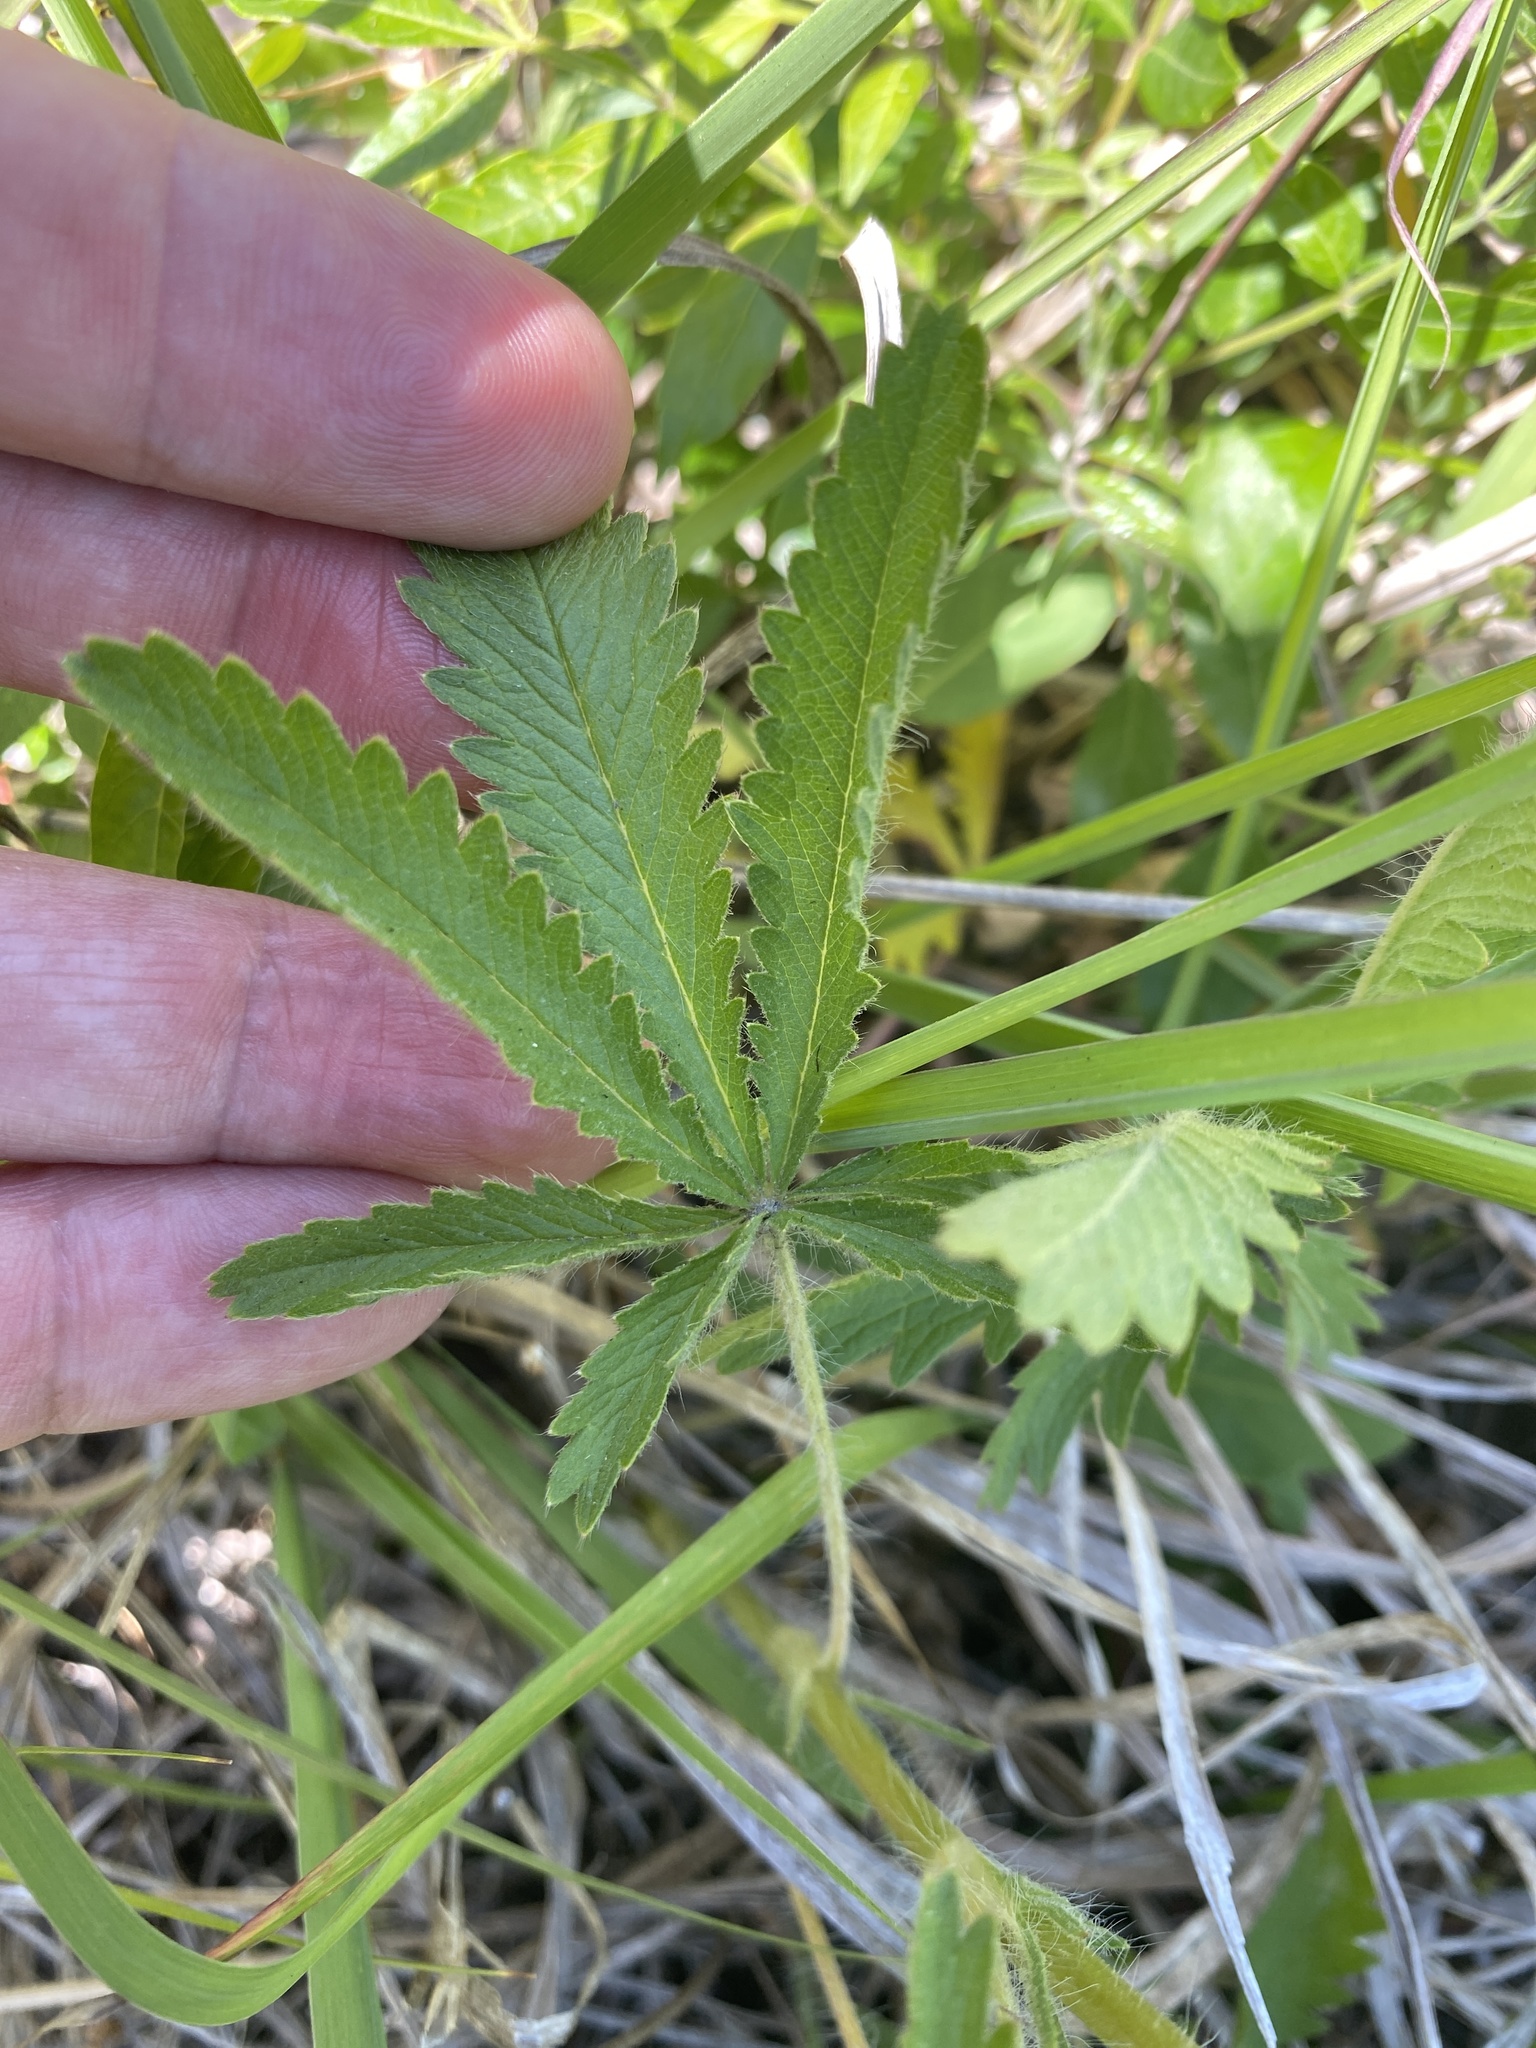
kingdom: Plantae
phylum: Tracheophyta
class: Magnoliopsida
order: Rosales
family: Rosaceae
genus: Potentilla
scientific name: Potentilla recta
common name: Sulphur cinquefoil
